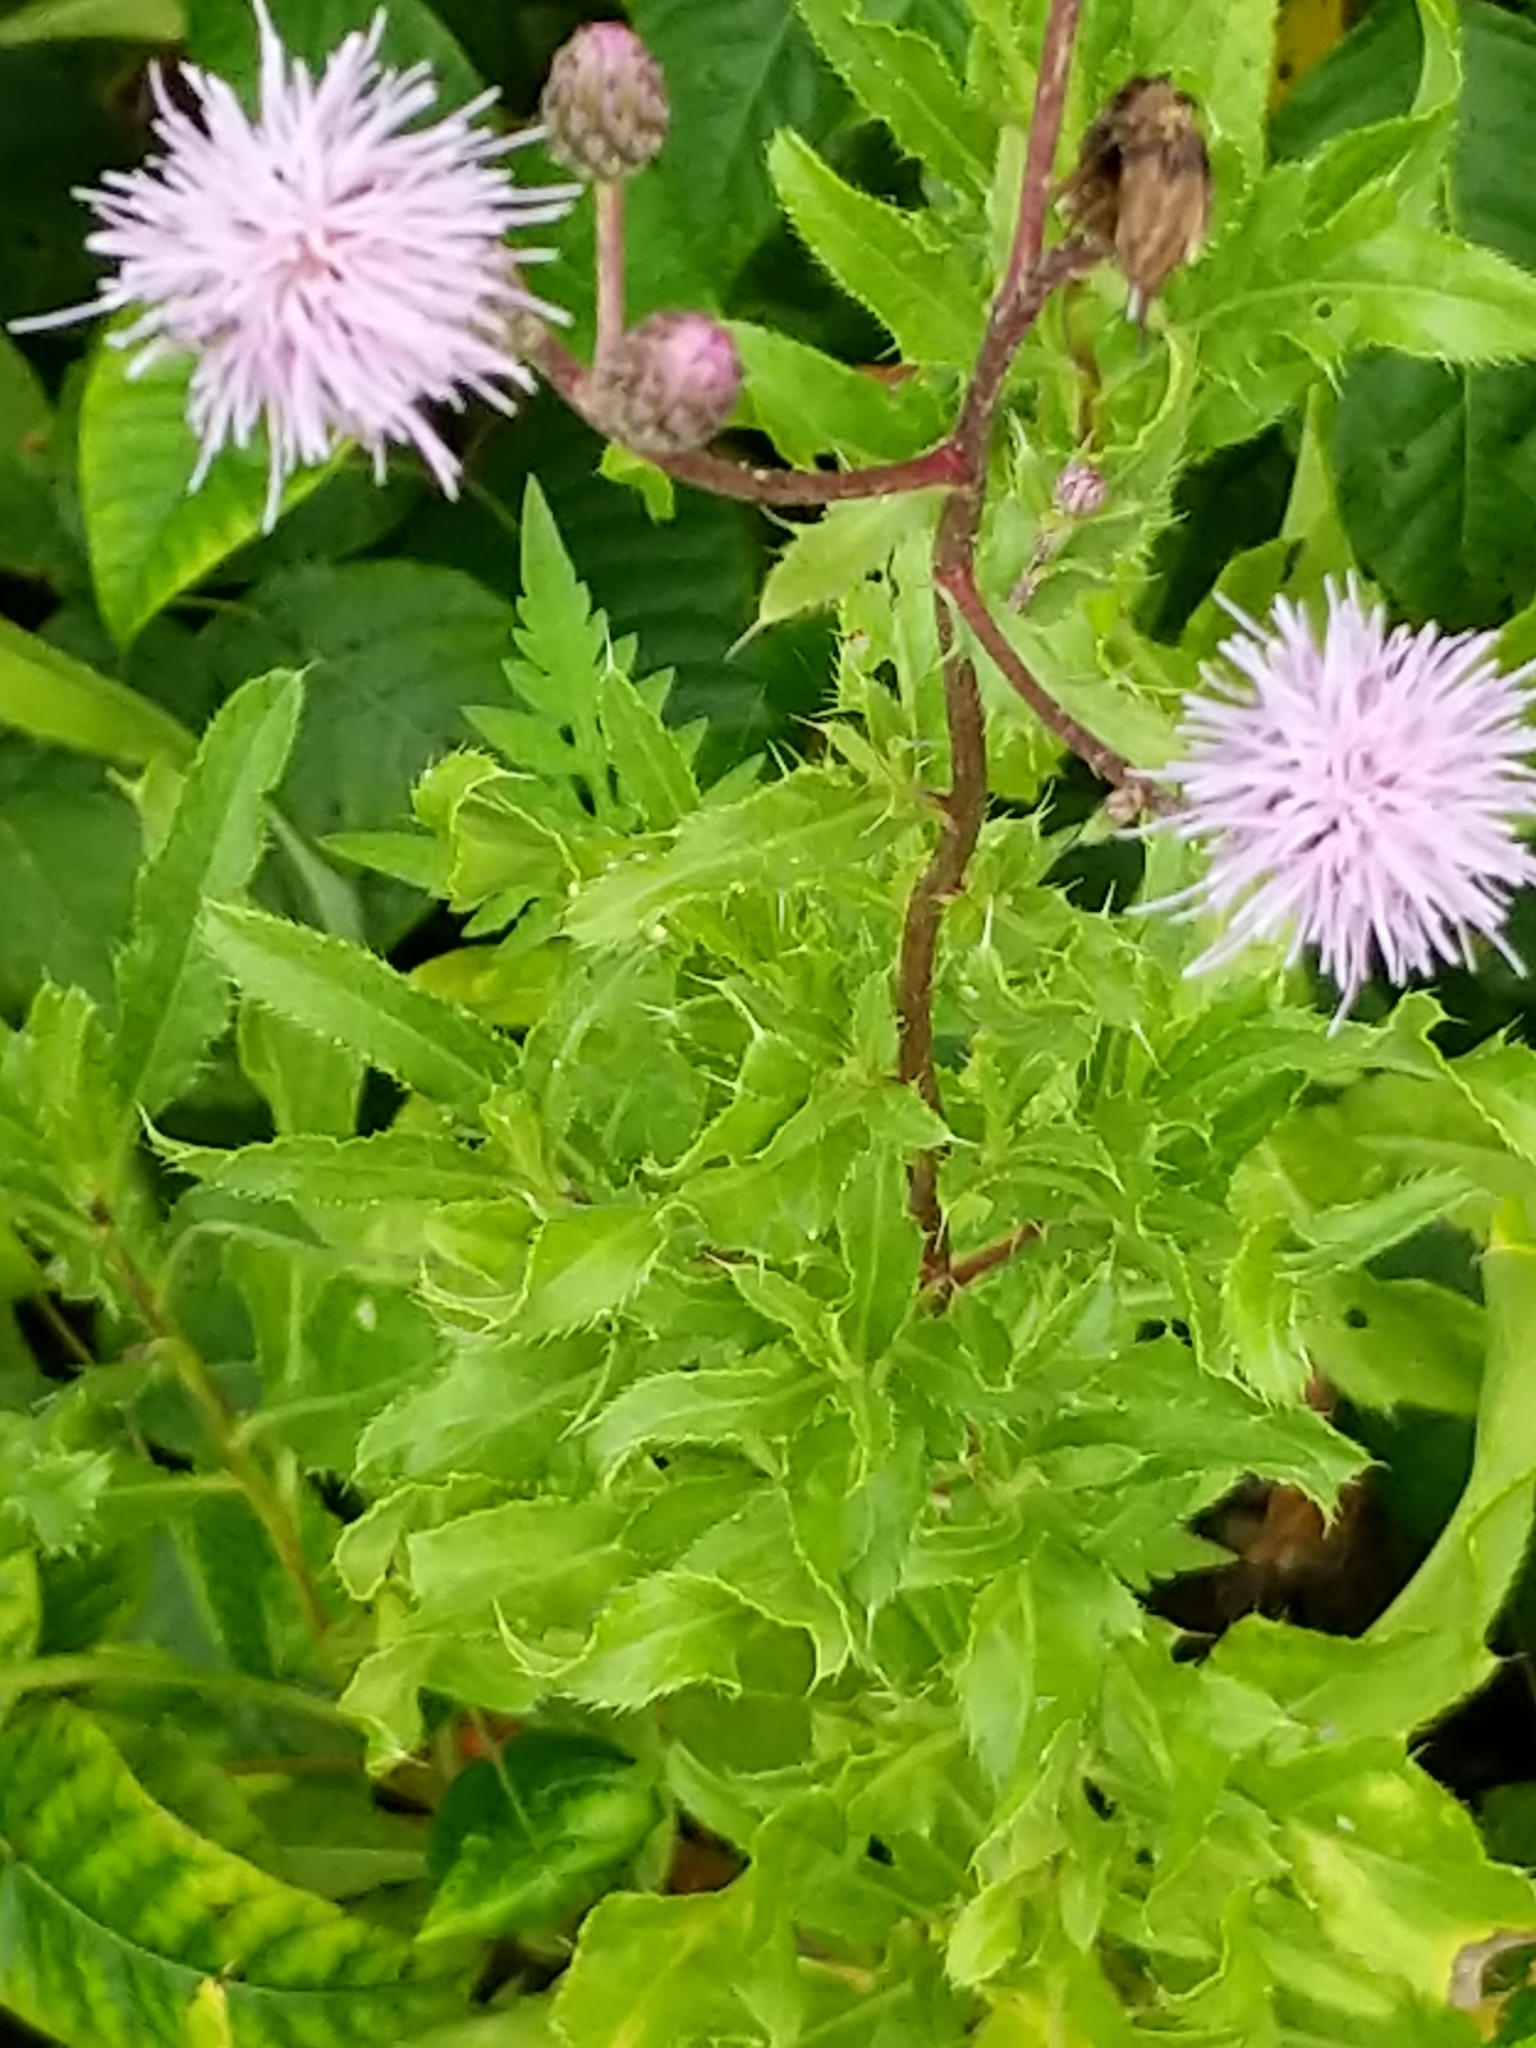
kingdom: Plantae
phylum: Tracheophyta
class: Magnoliopsida
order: Asterales
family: Asteraceae
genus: Cirsium
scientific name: Cirsium arvense
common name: Creeping thistle
